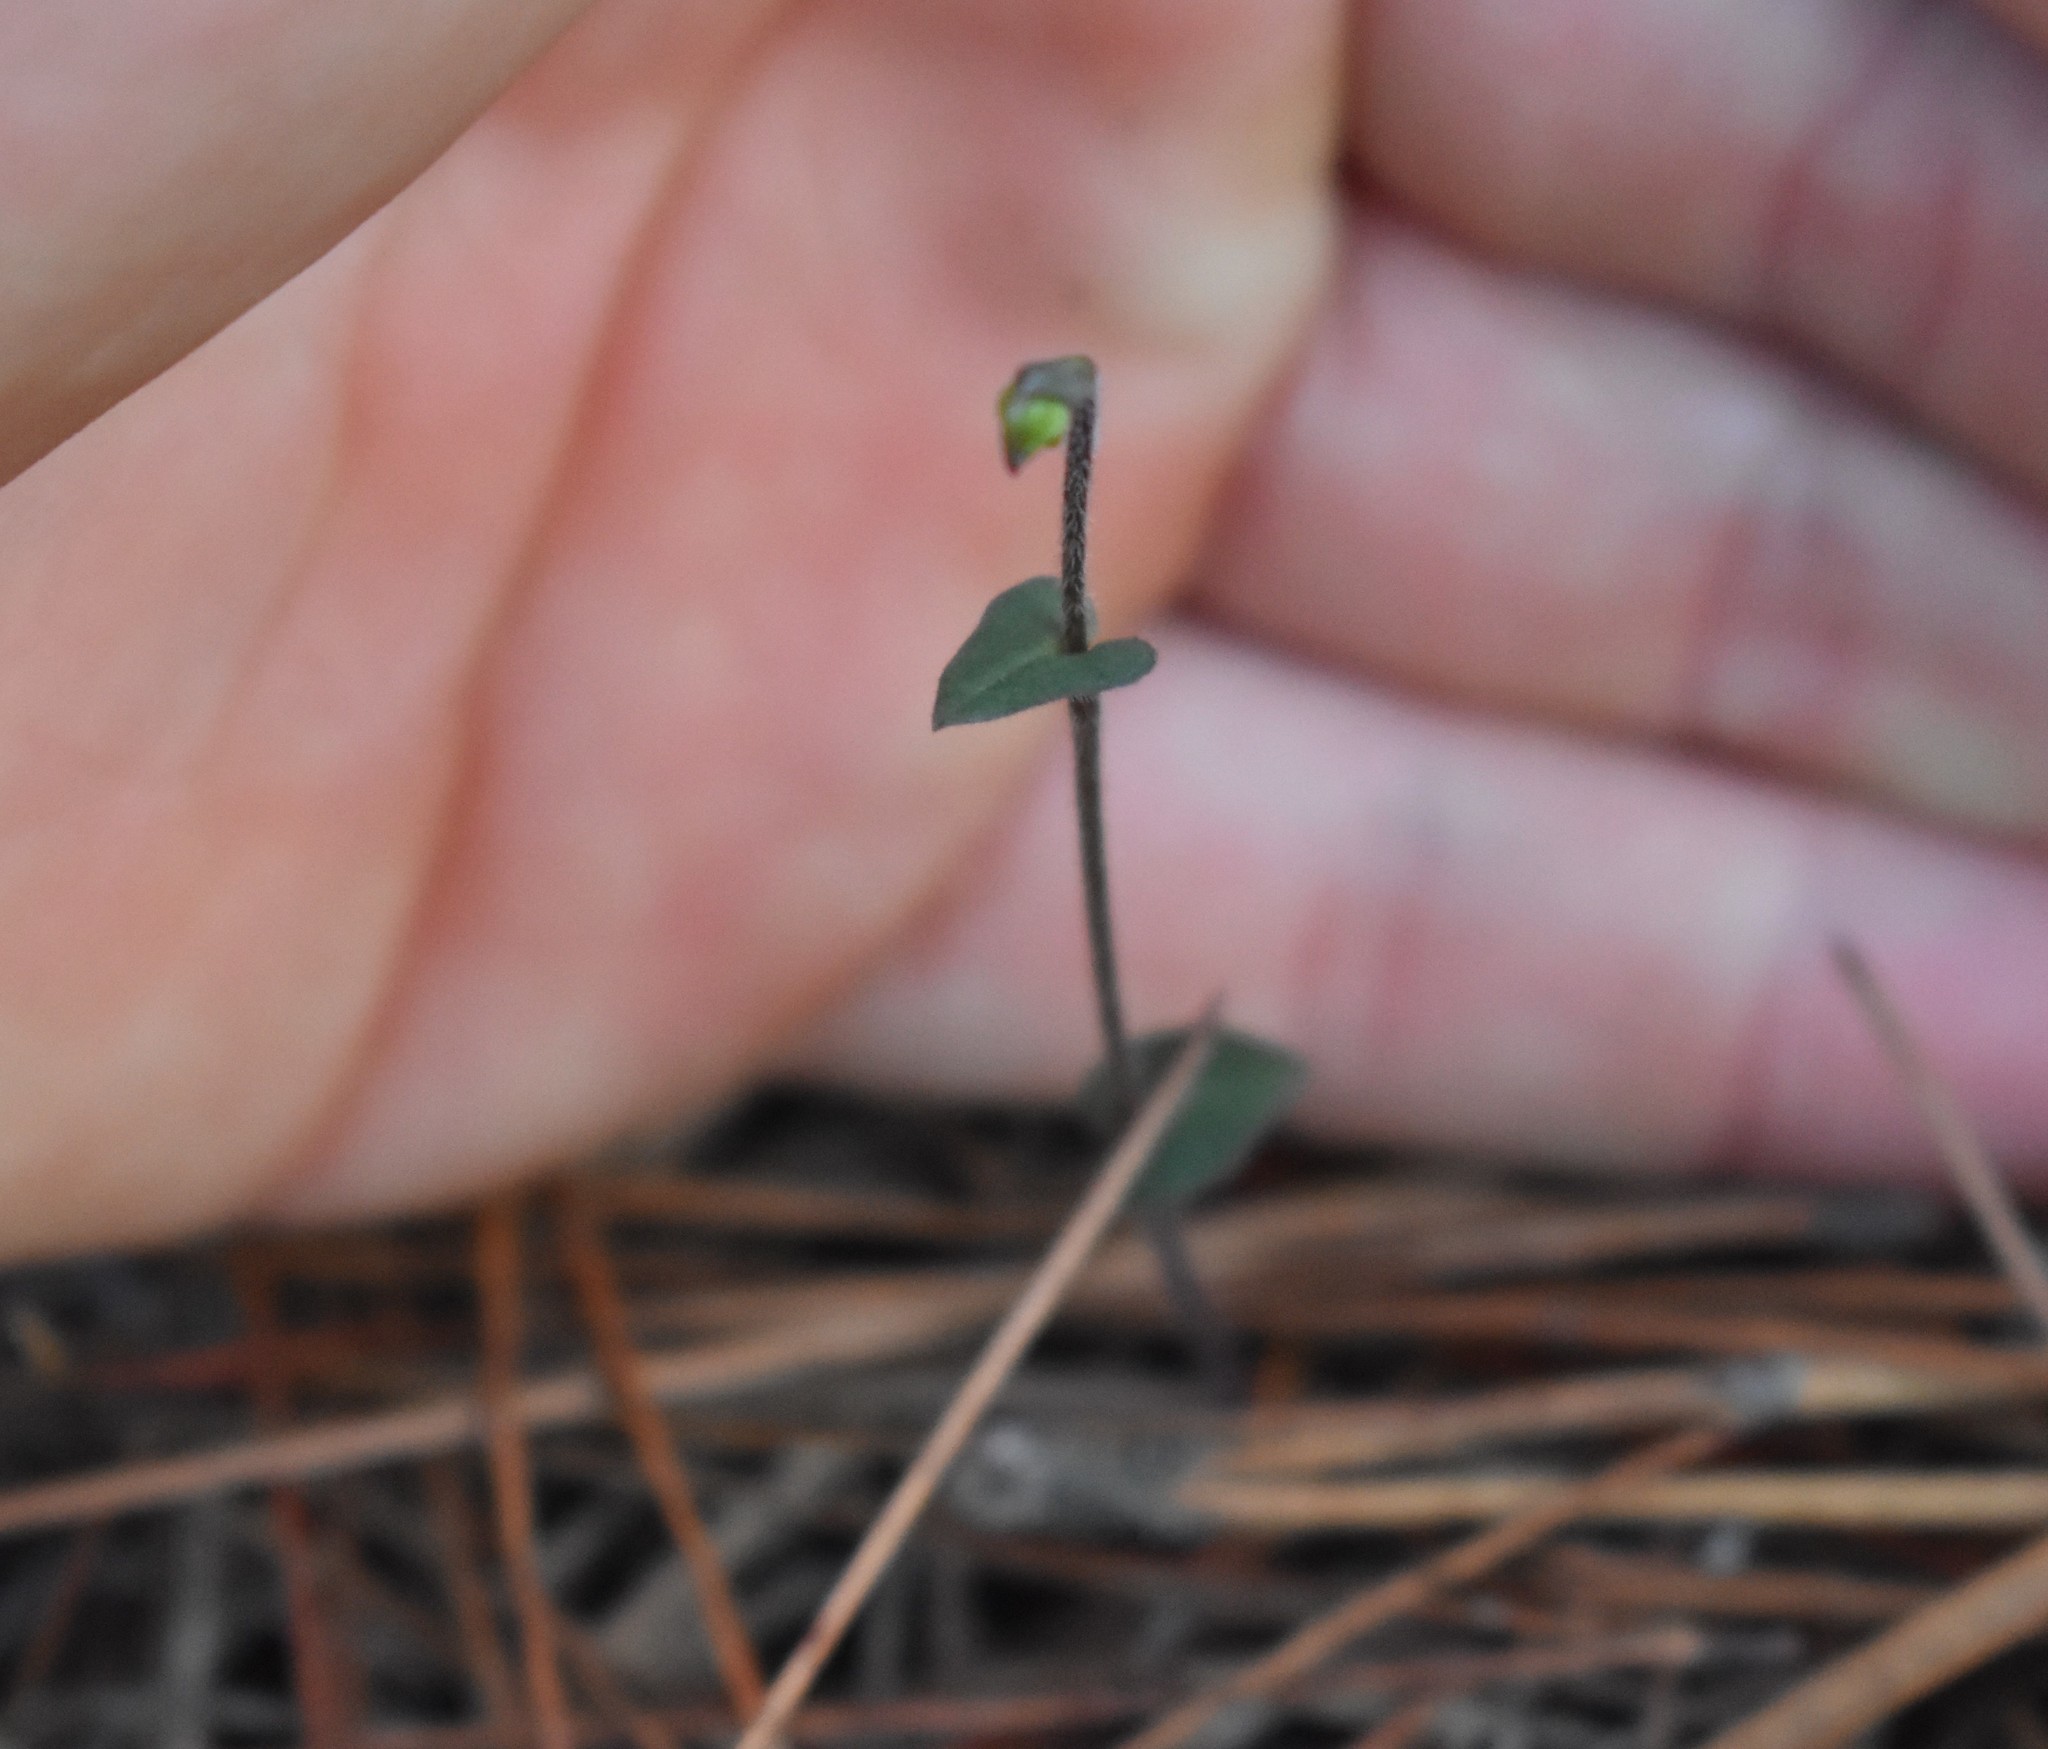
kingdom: Plantae
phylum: Tracheophyta
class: Liliopsida
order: Asparagales
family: Orchidaceae
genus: Disperis
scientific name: Disperis macowanii
